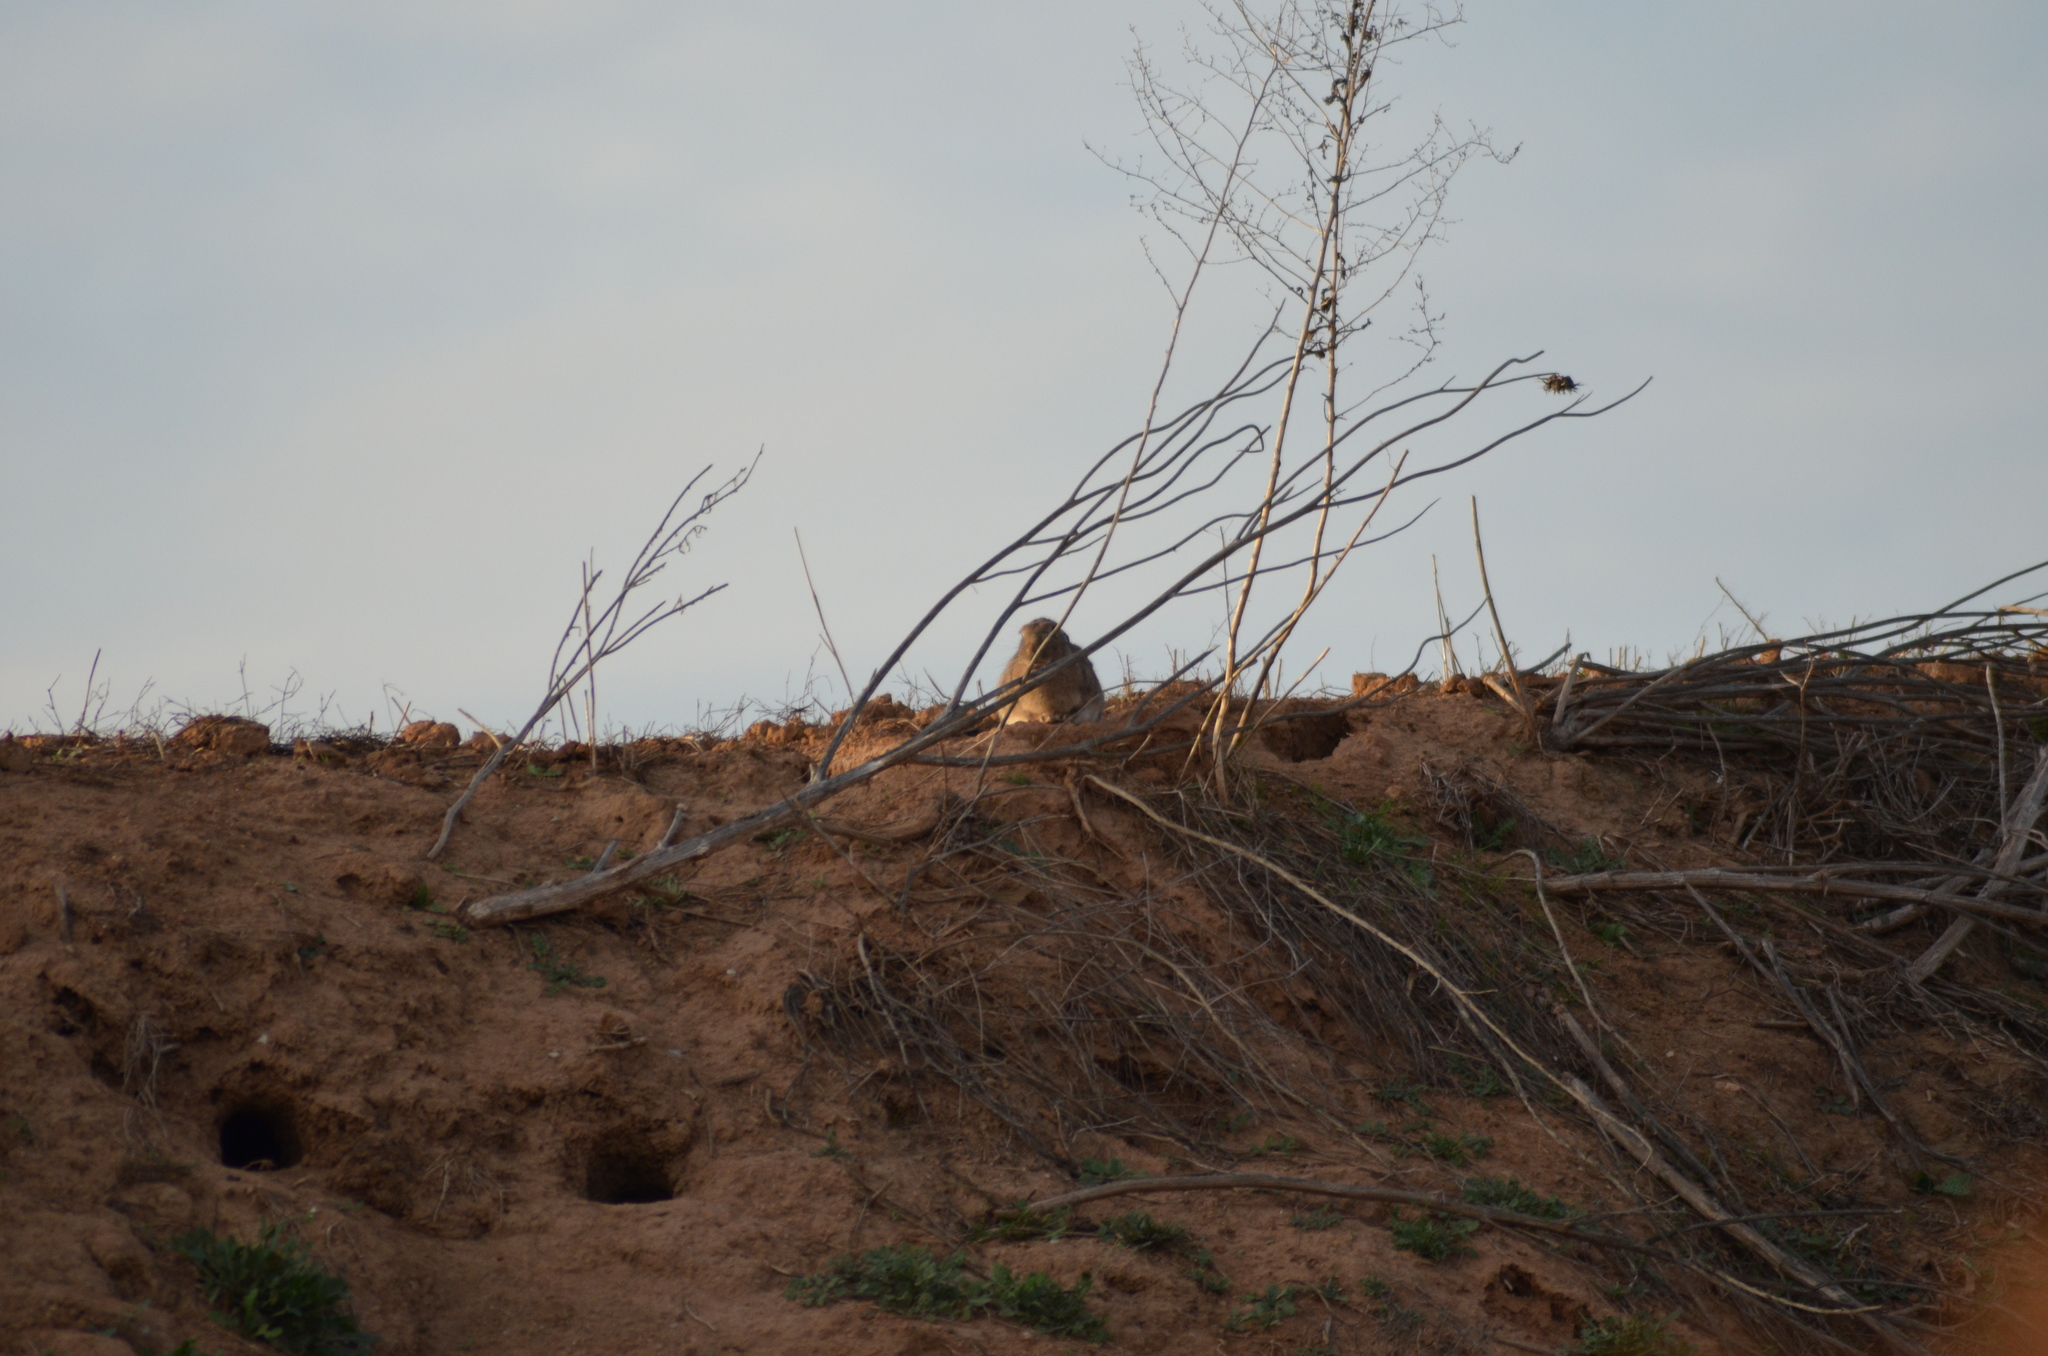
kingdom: Animalia
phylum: Chordata
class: Mammalia
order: Lagomorpha
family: Leporidae
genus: Oryctolagus
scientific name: Oryctolagus cuniculus
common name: European rabbit
